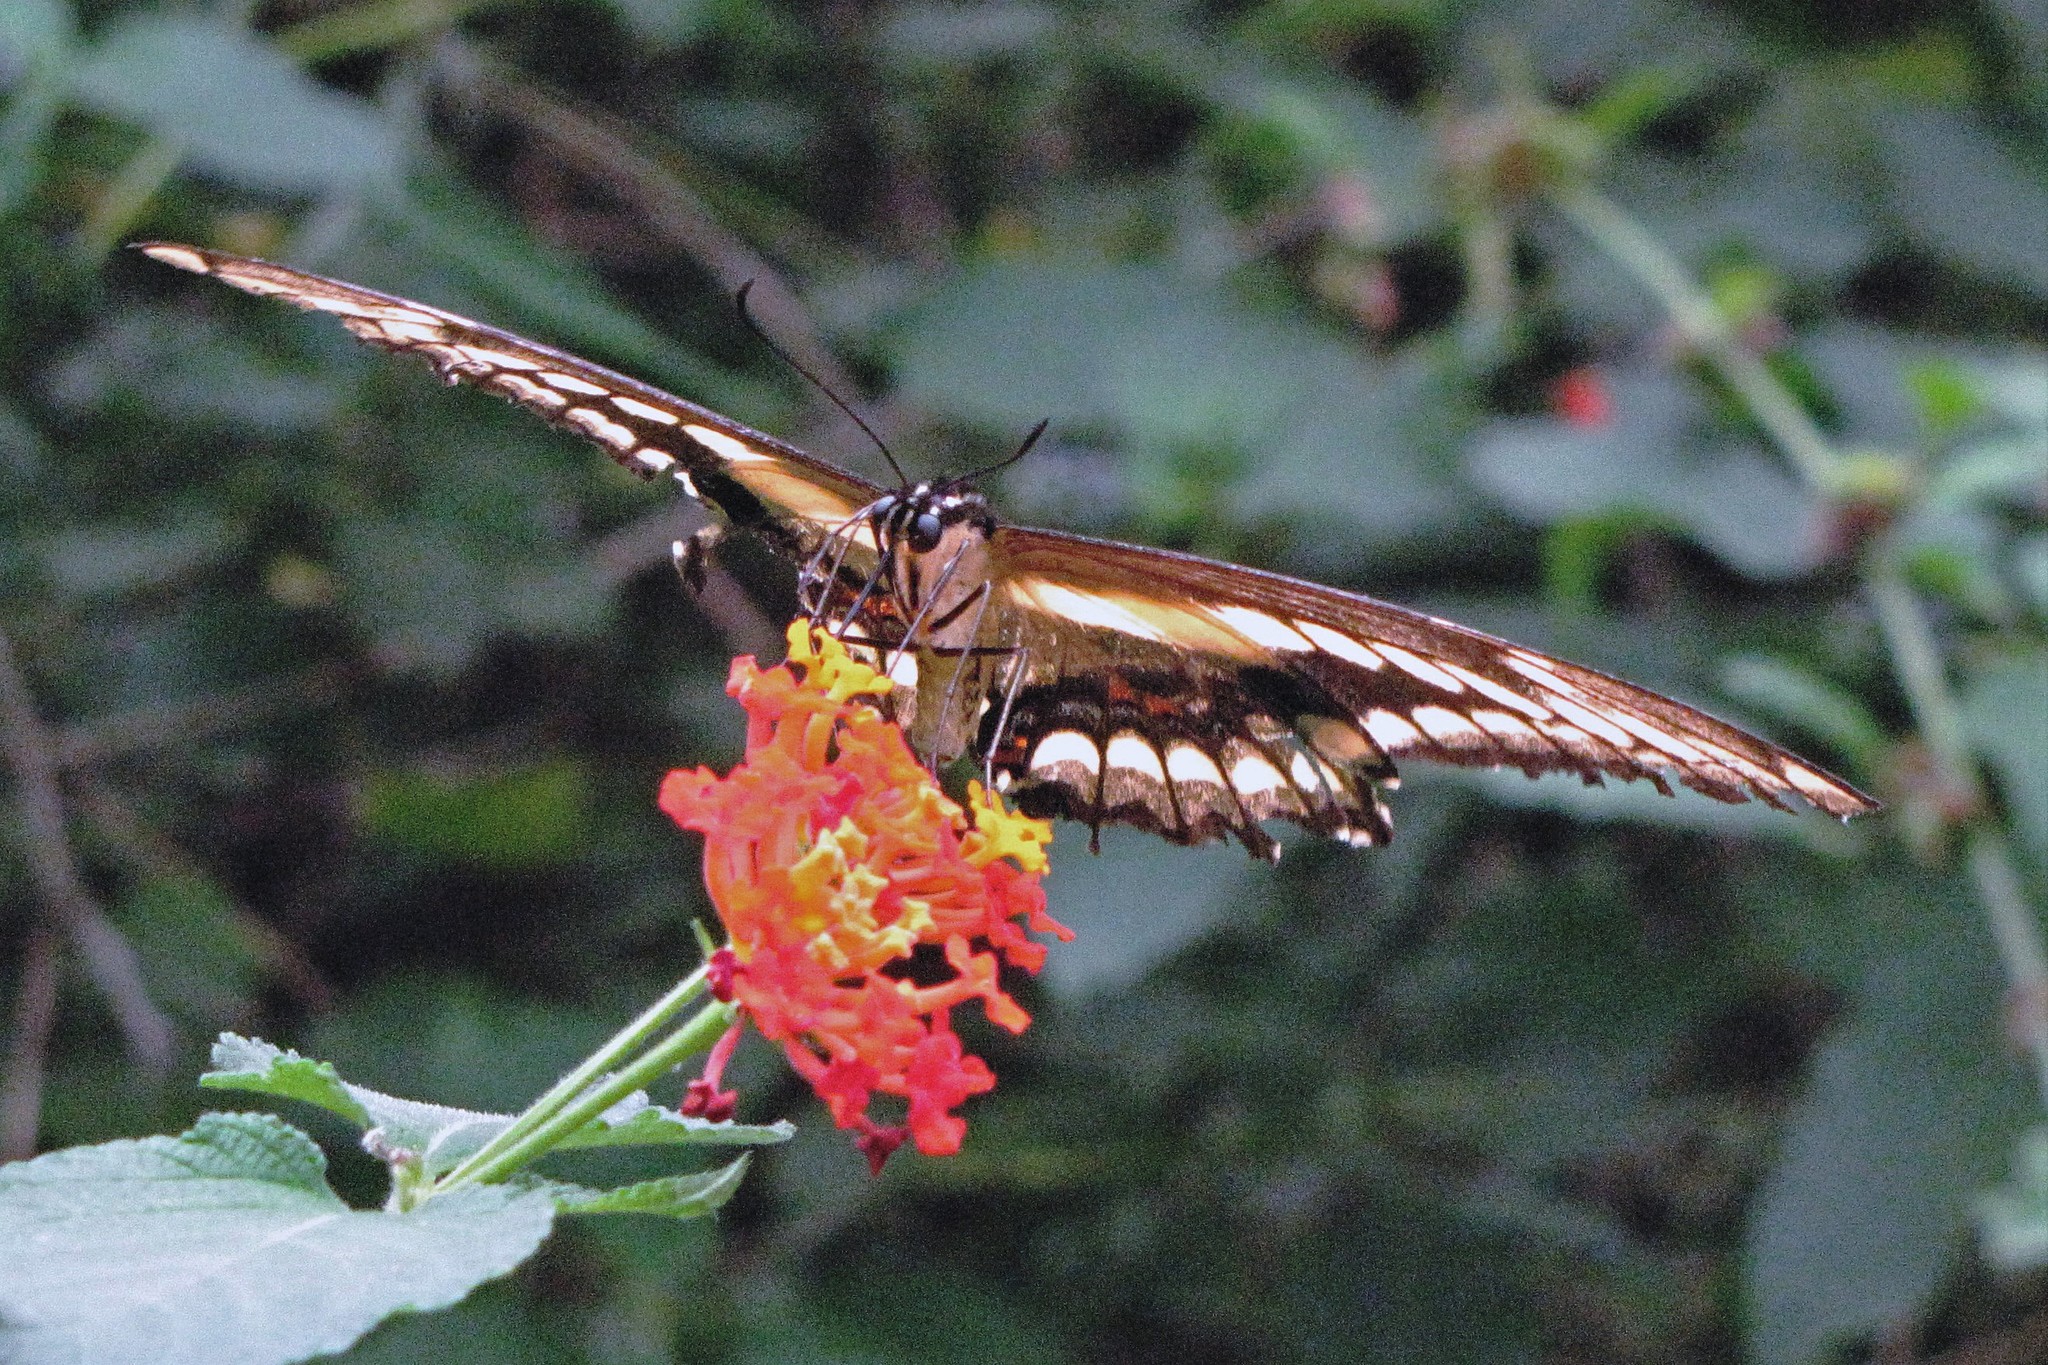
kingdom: Animalia
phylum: Arthropoda
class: Insecta
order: Lepidoptera
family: Papilionidae
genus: Papilio
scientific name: Papilio thoas
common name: King swallowtail
